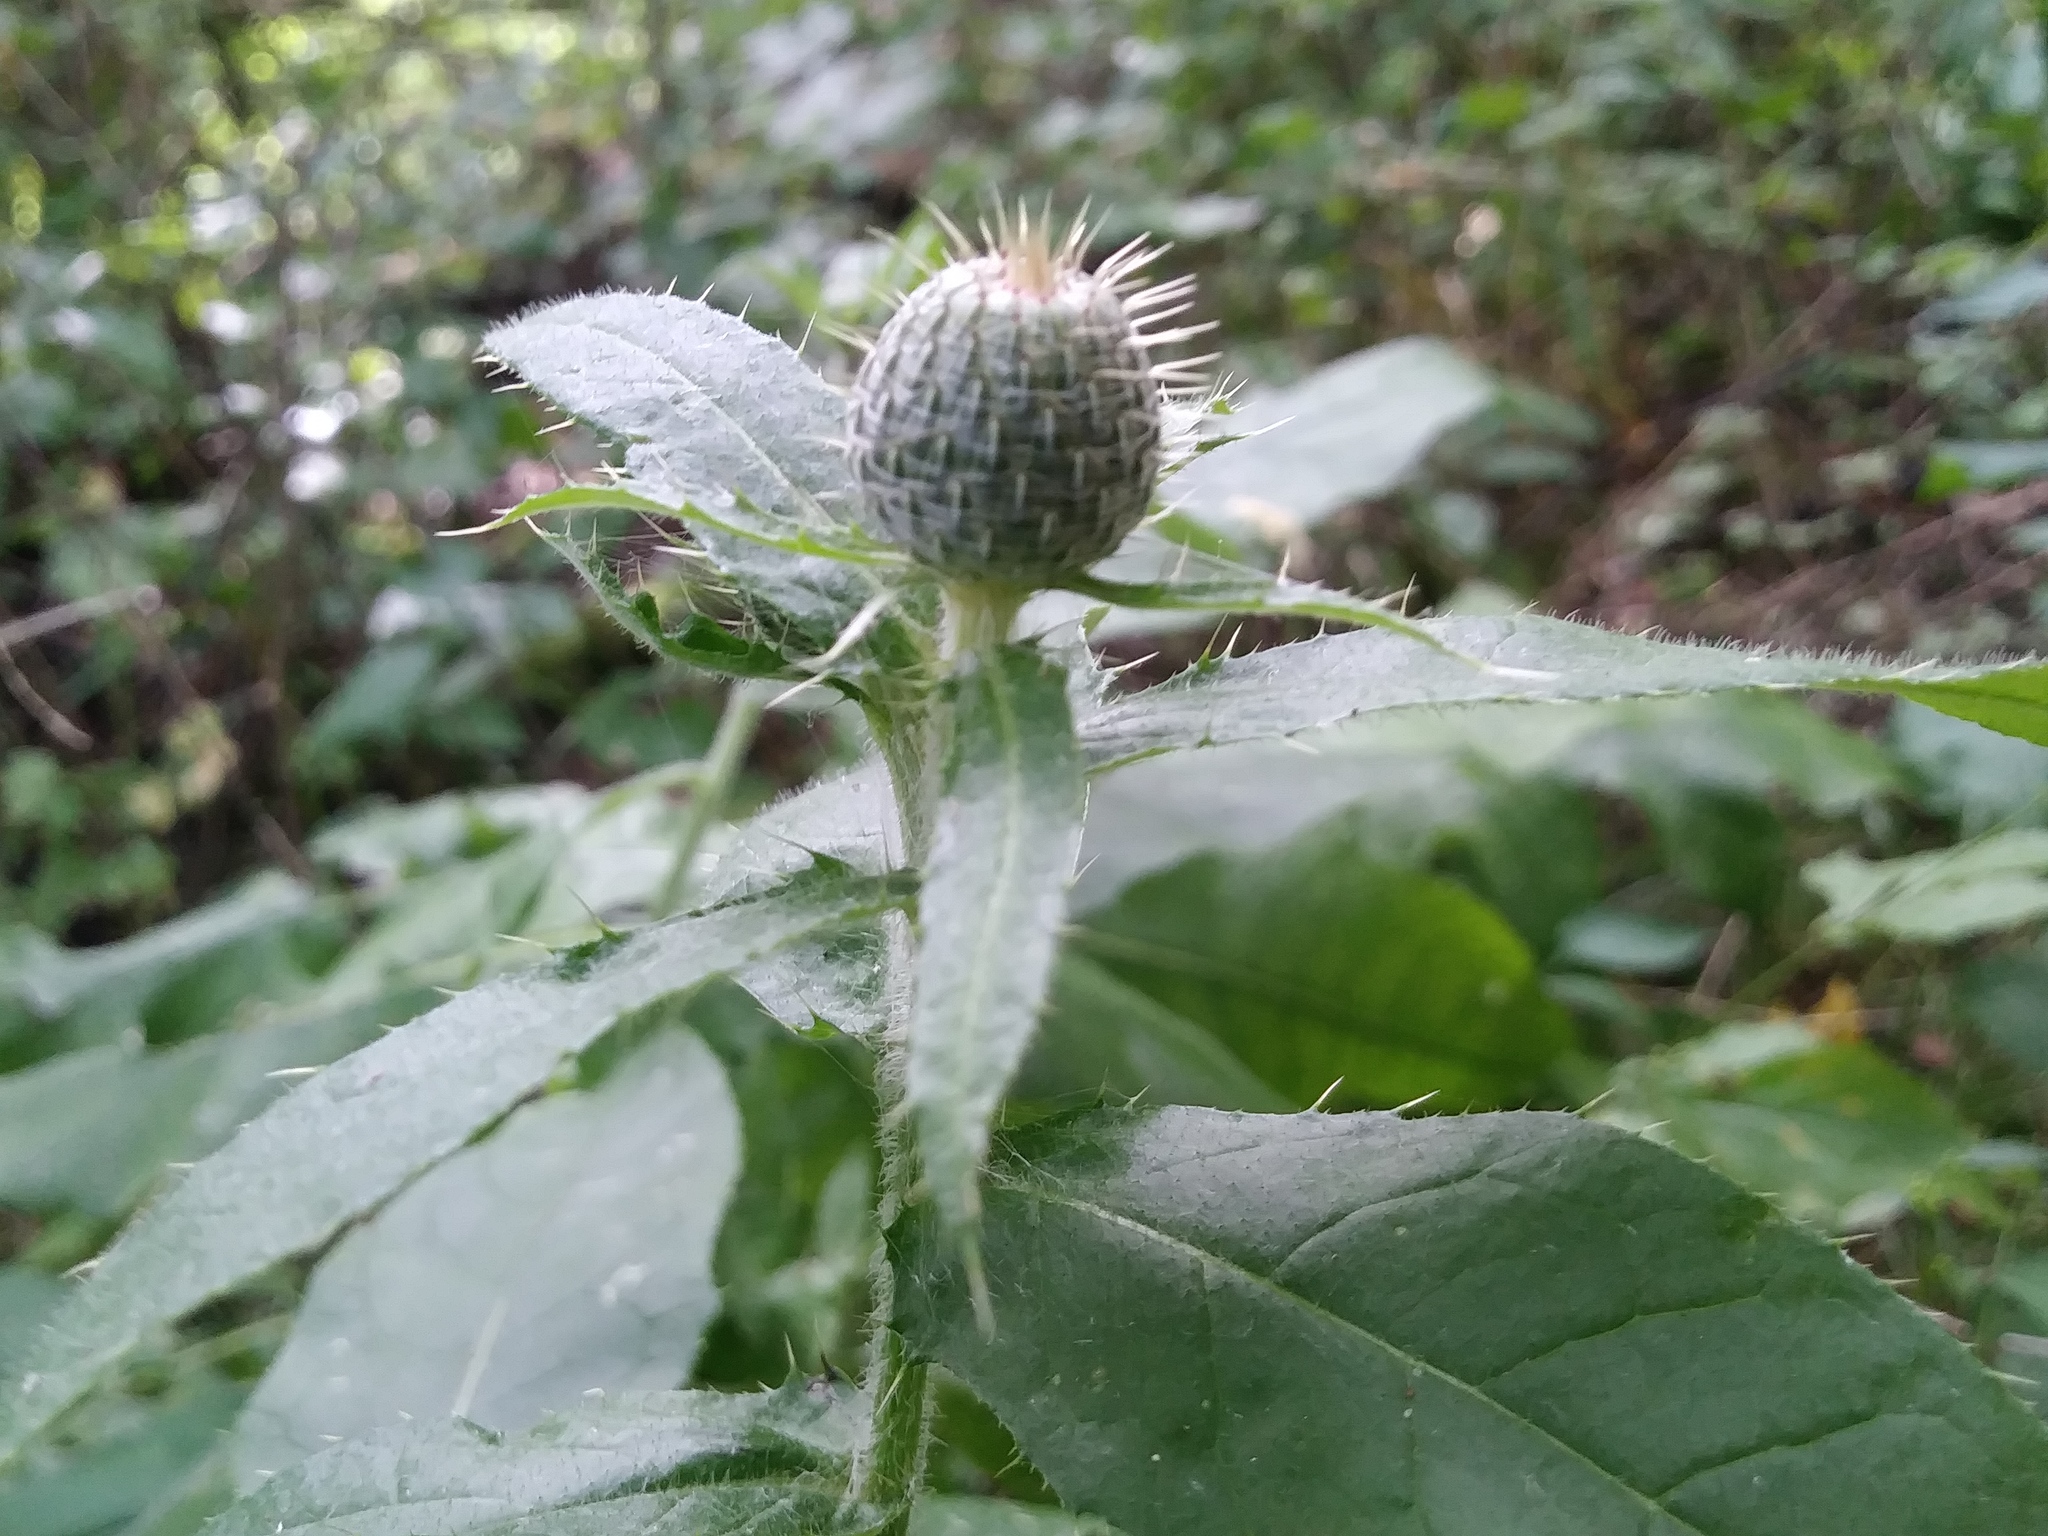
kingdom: Plantae
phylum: Tracheophyta
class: Magnoliopsida
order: Asterales
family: Asteraceae
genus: Cirsium
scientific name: Cirsium altissimum
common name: Roadside thistle
